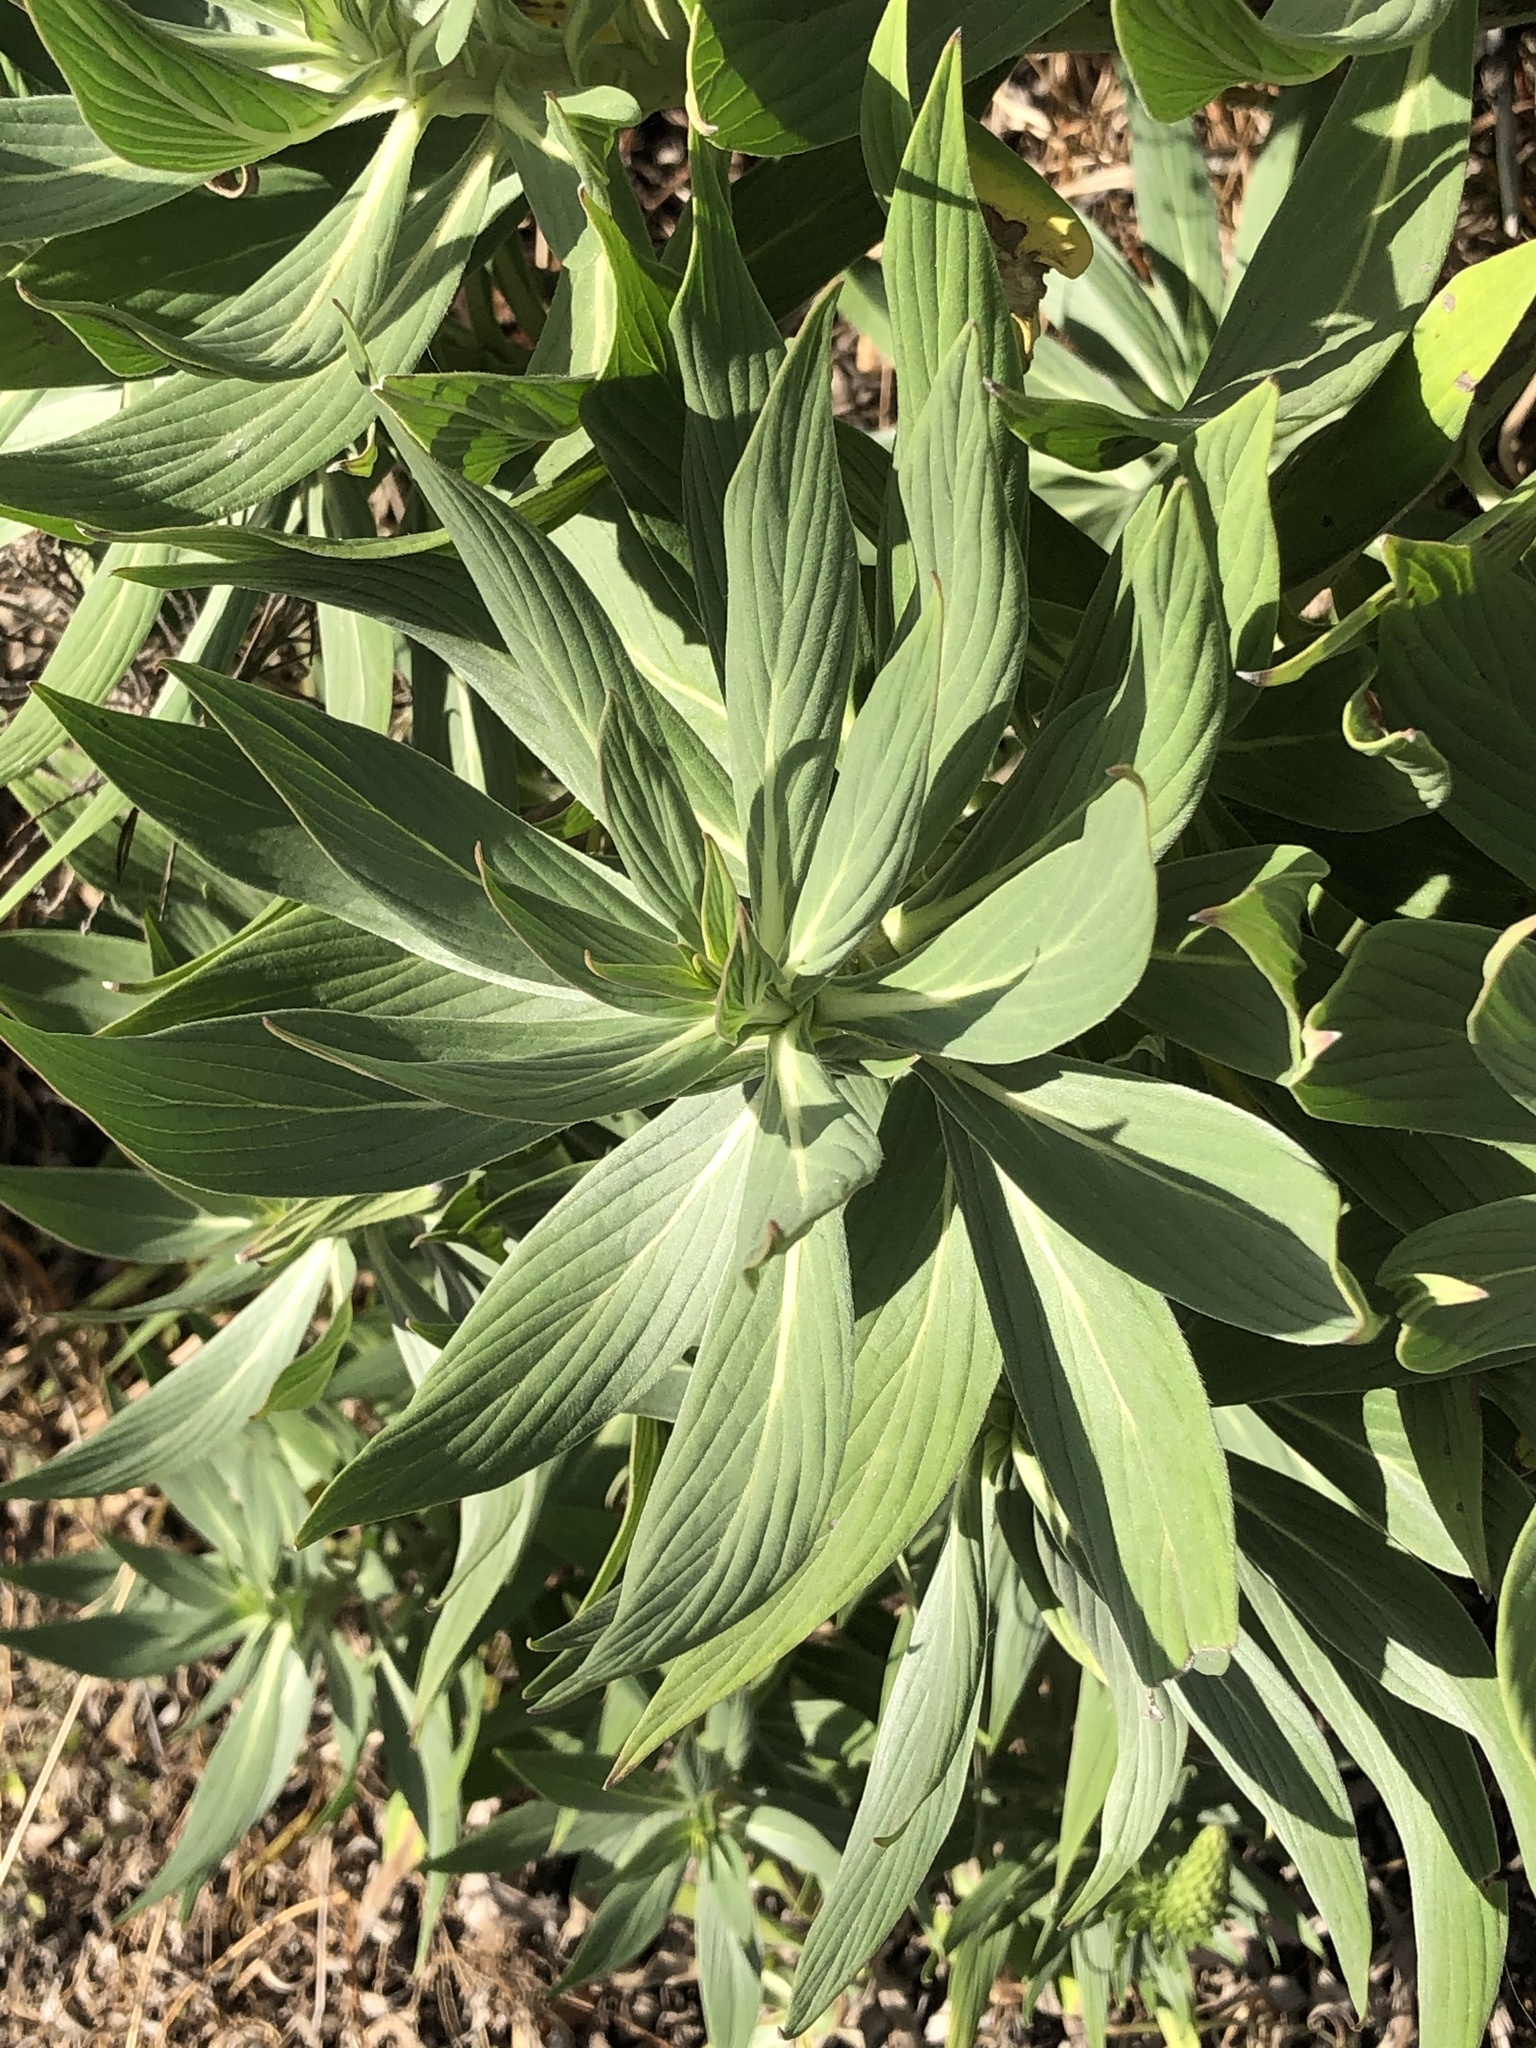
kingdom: Plantae
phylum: Tracheophyta
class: Magnoliopsida
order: Boraginales
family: Boraginaceae
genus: Echium
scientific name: Echium candicans
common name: Pride of madeira
